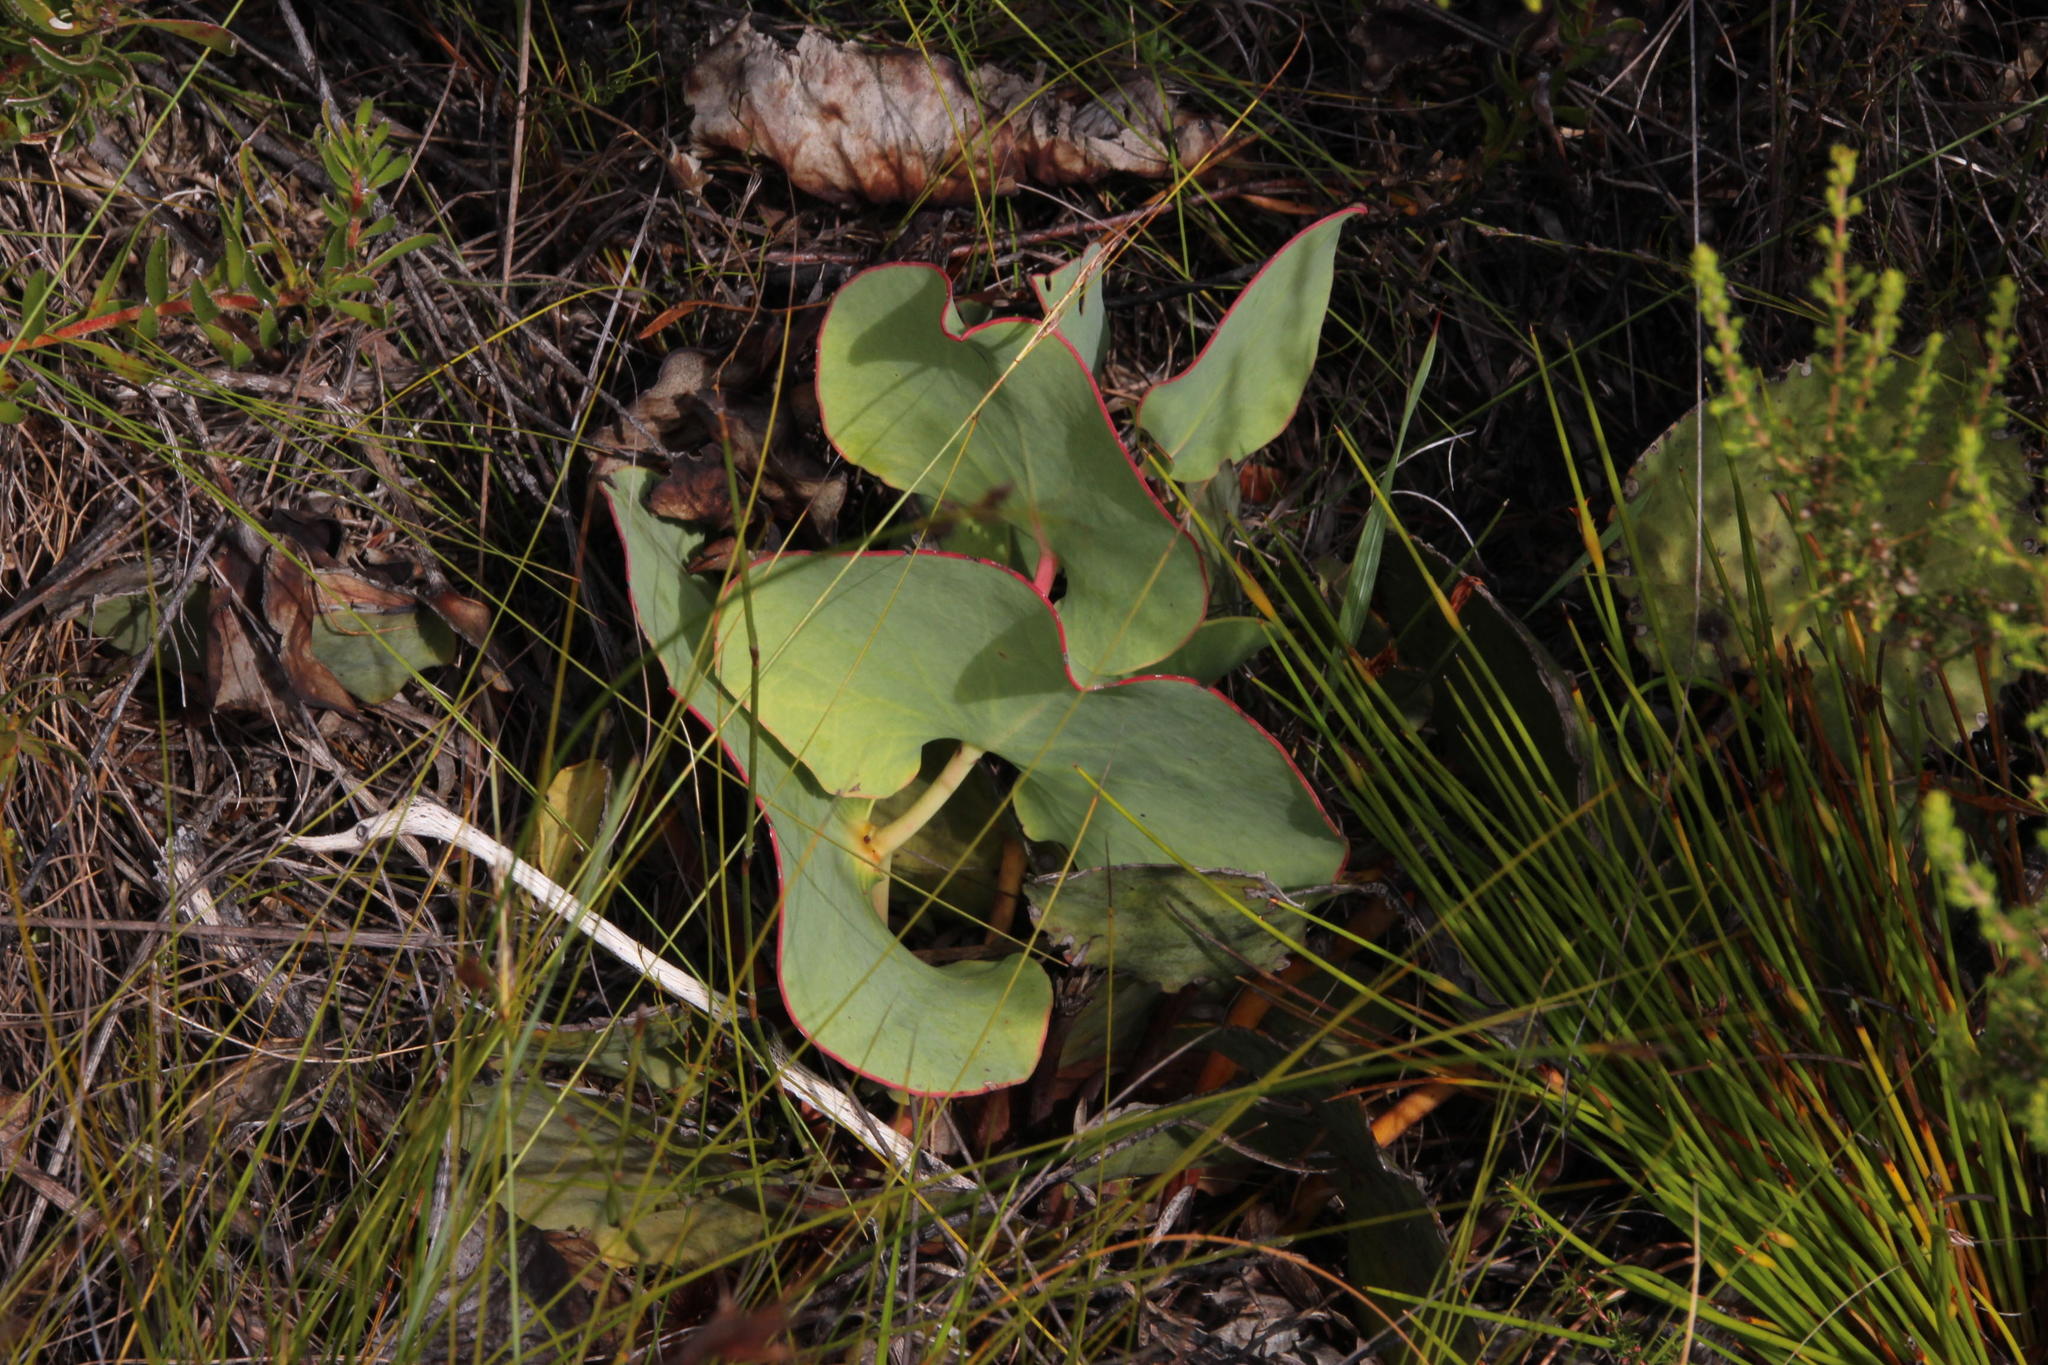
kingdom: Plantae
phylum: Tracheophyta
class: Magnoliopsida
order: Proteales
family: Proteaceae
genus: Protea
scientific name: Protea cordata
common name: Heart-leaf sugarbush
